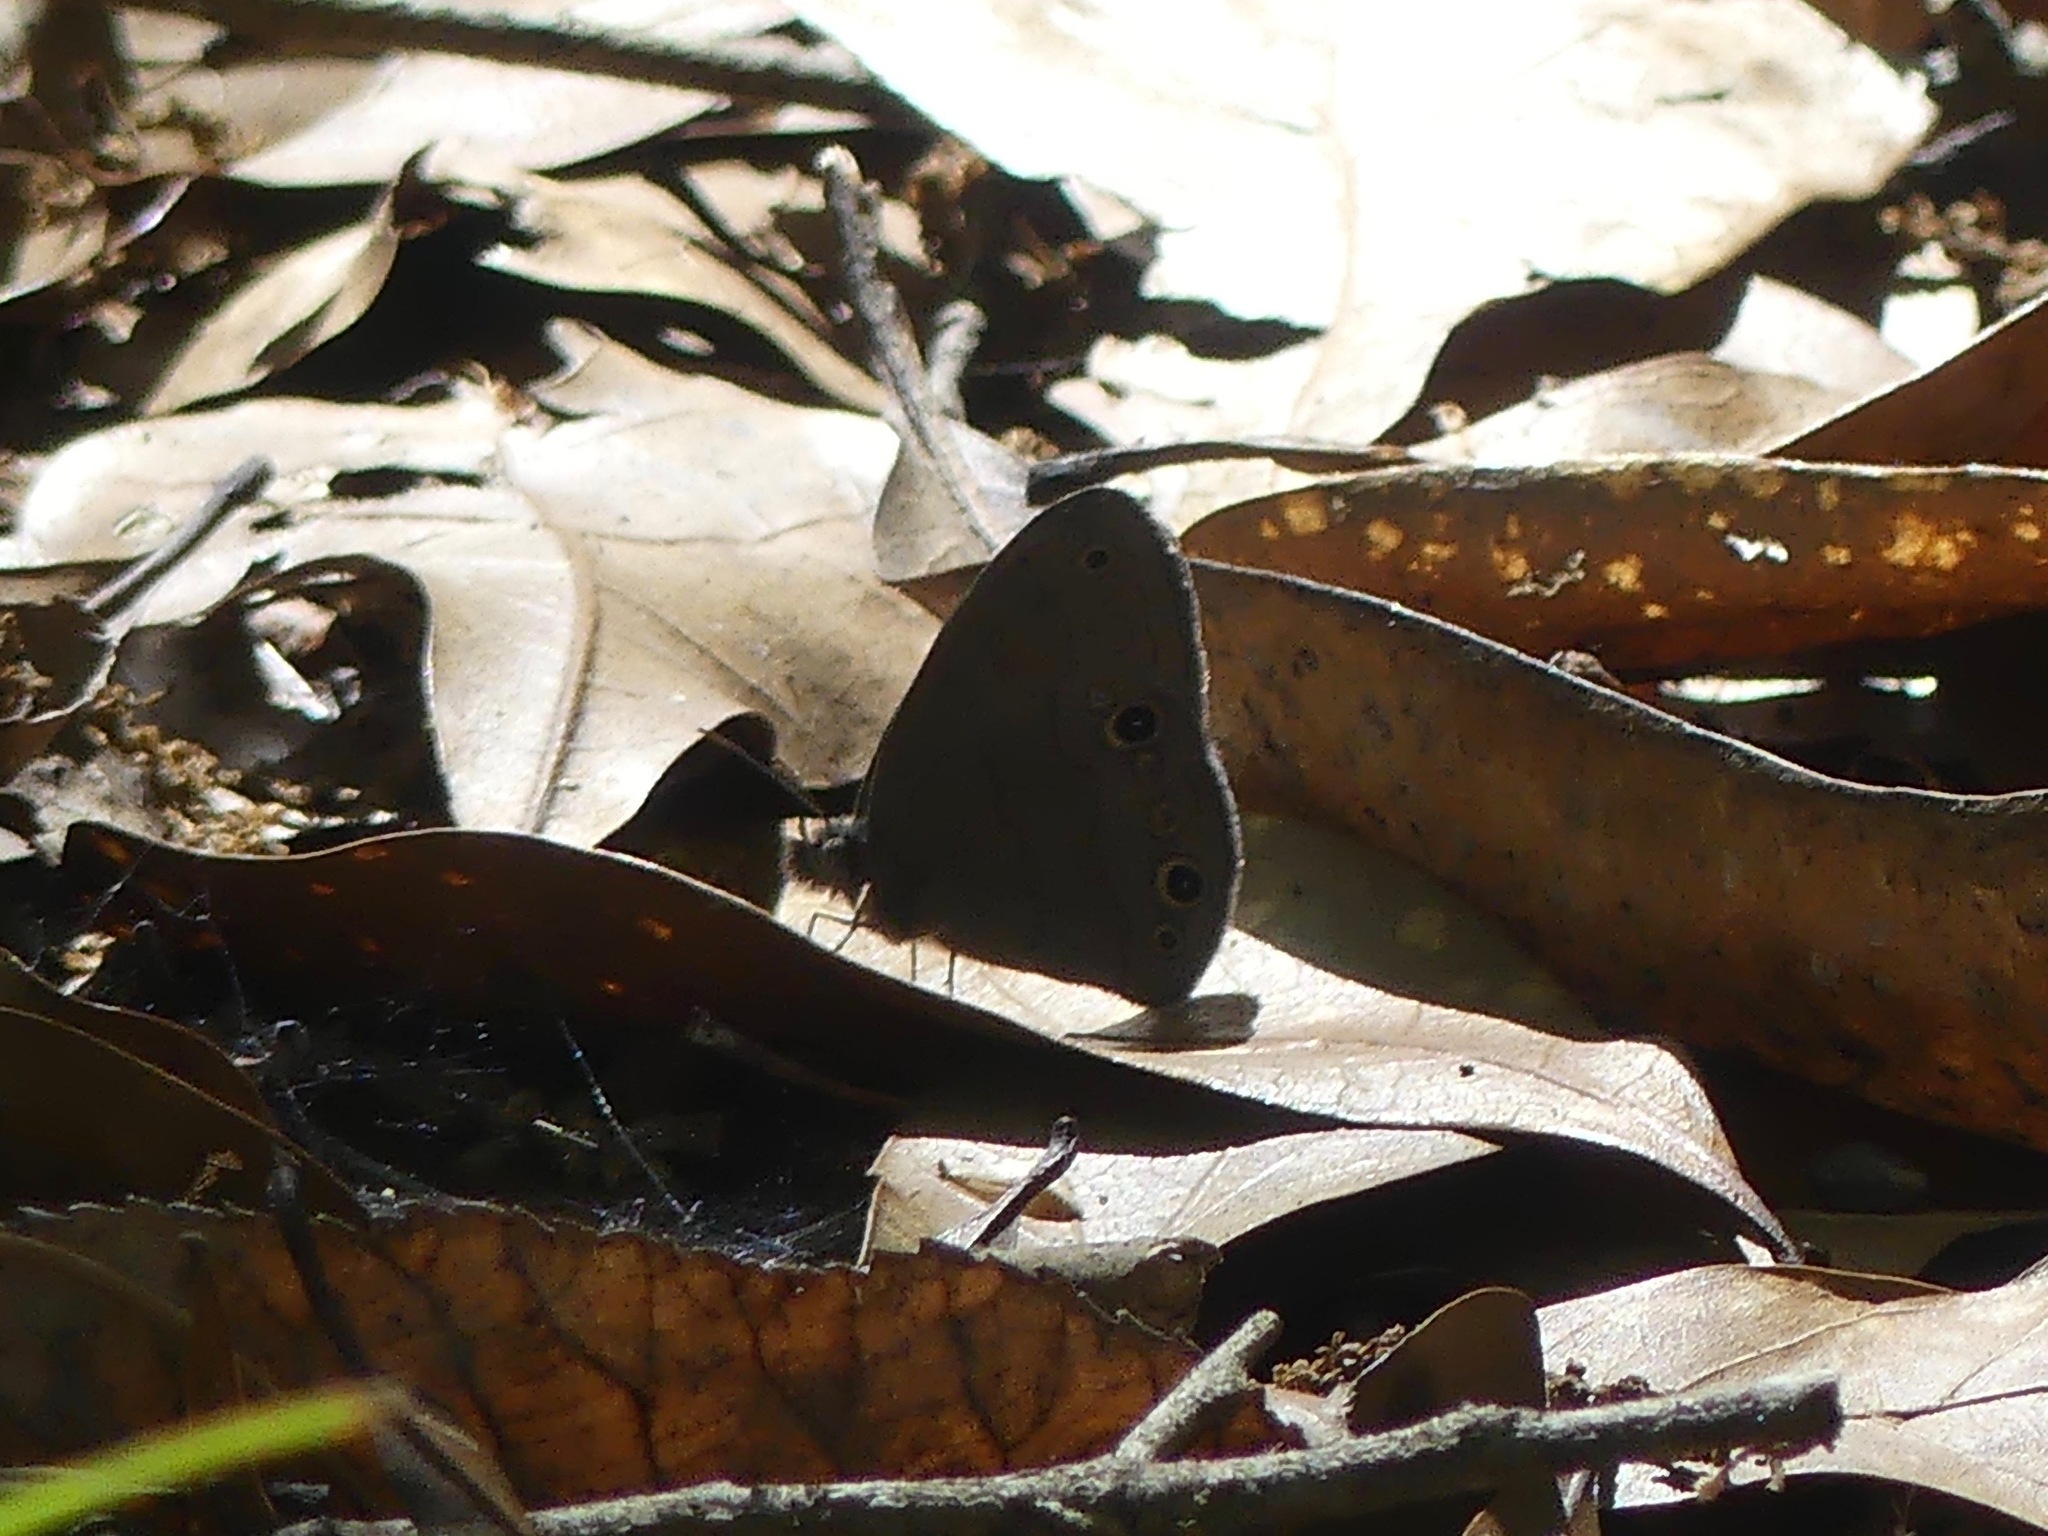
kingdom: Animalia
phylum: Arthropoda
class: Insecta
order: Lepidoptera
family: Nymphalidae
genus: Hermeuptychia
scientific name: Hermeuptychia hermes
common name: Hermes satyr
